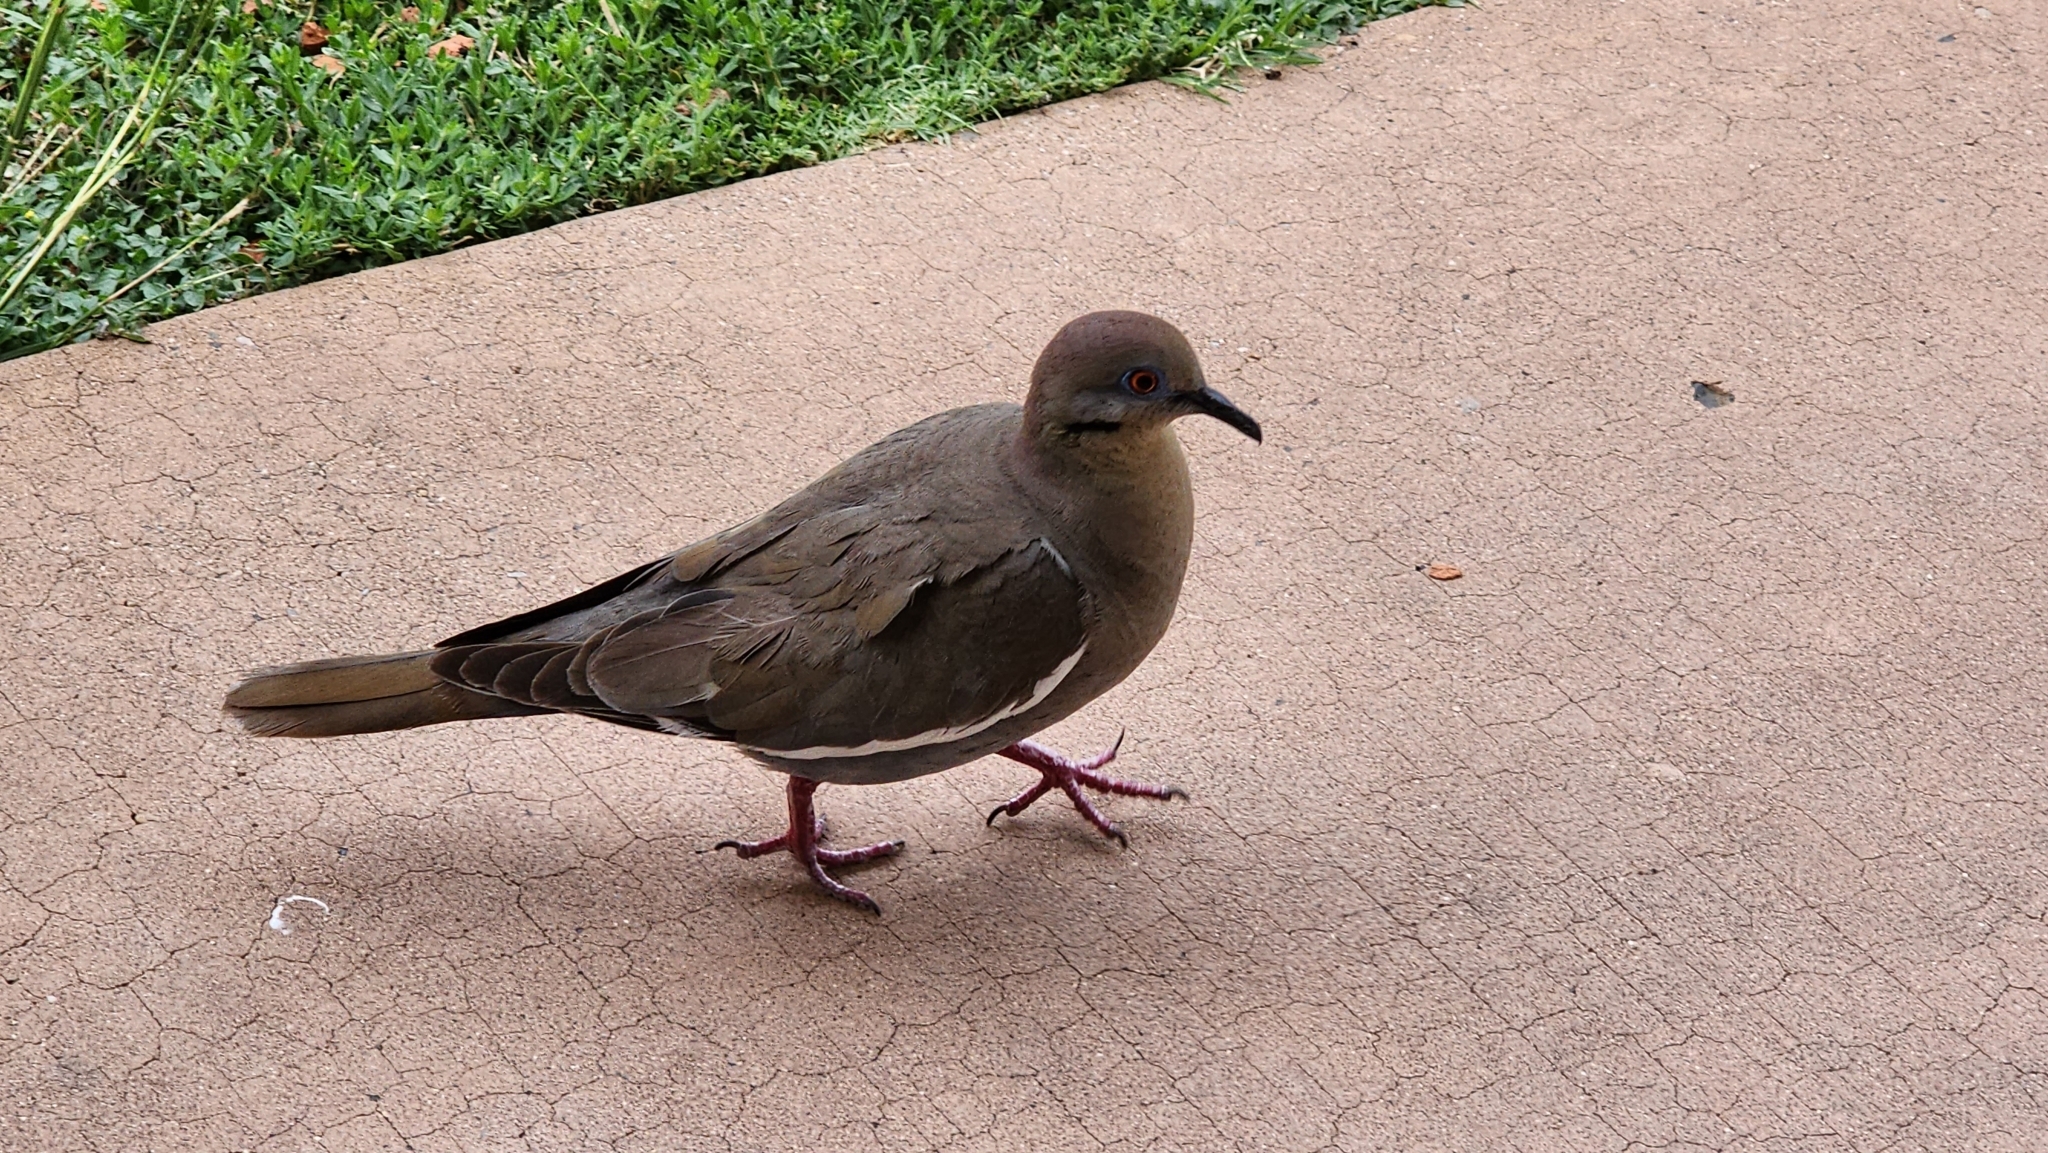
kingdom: Animalia
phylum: Chordata
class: Aves
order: Columbiformes
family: Columbidae
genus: Zenaida
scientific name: Zenaida asiatica
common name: White-winged dove
